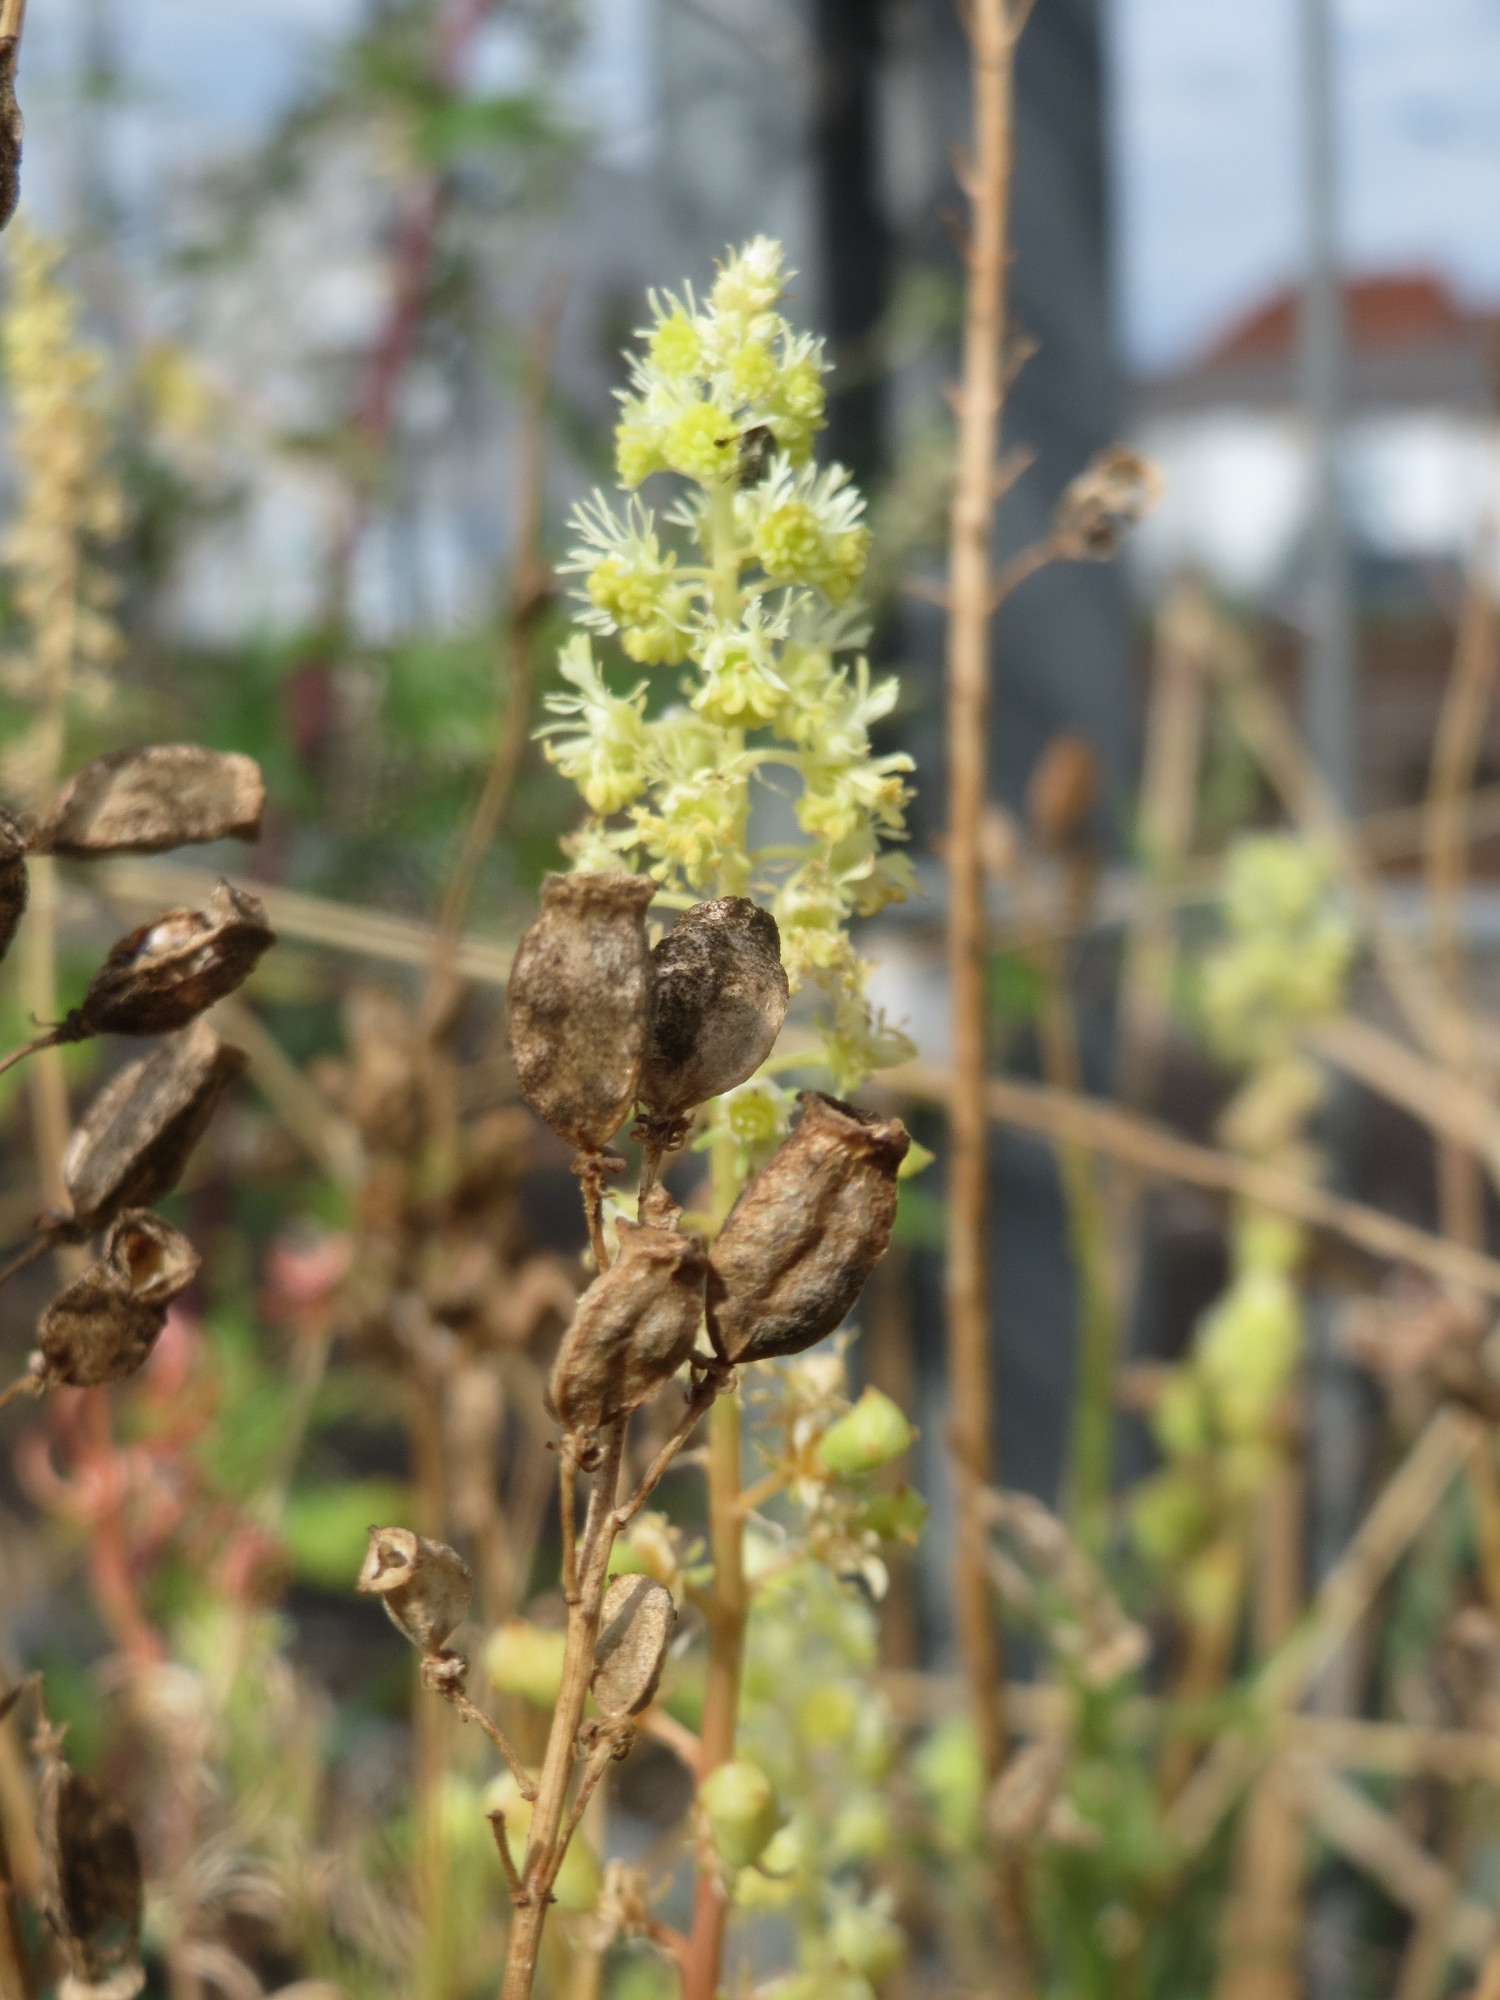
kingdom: Plantae
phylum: Tracheophyta
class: Magnoliopsida
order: Brassicales
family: Resedaceae
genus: Reseda
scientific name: Reseda lutea
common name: Wild mignonette
